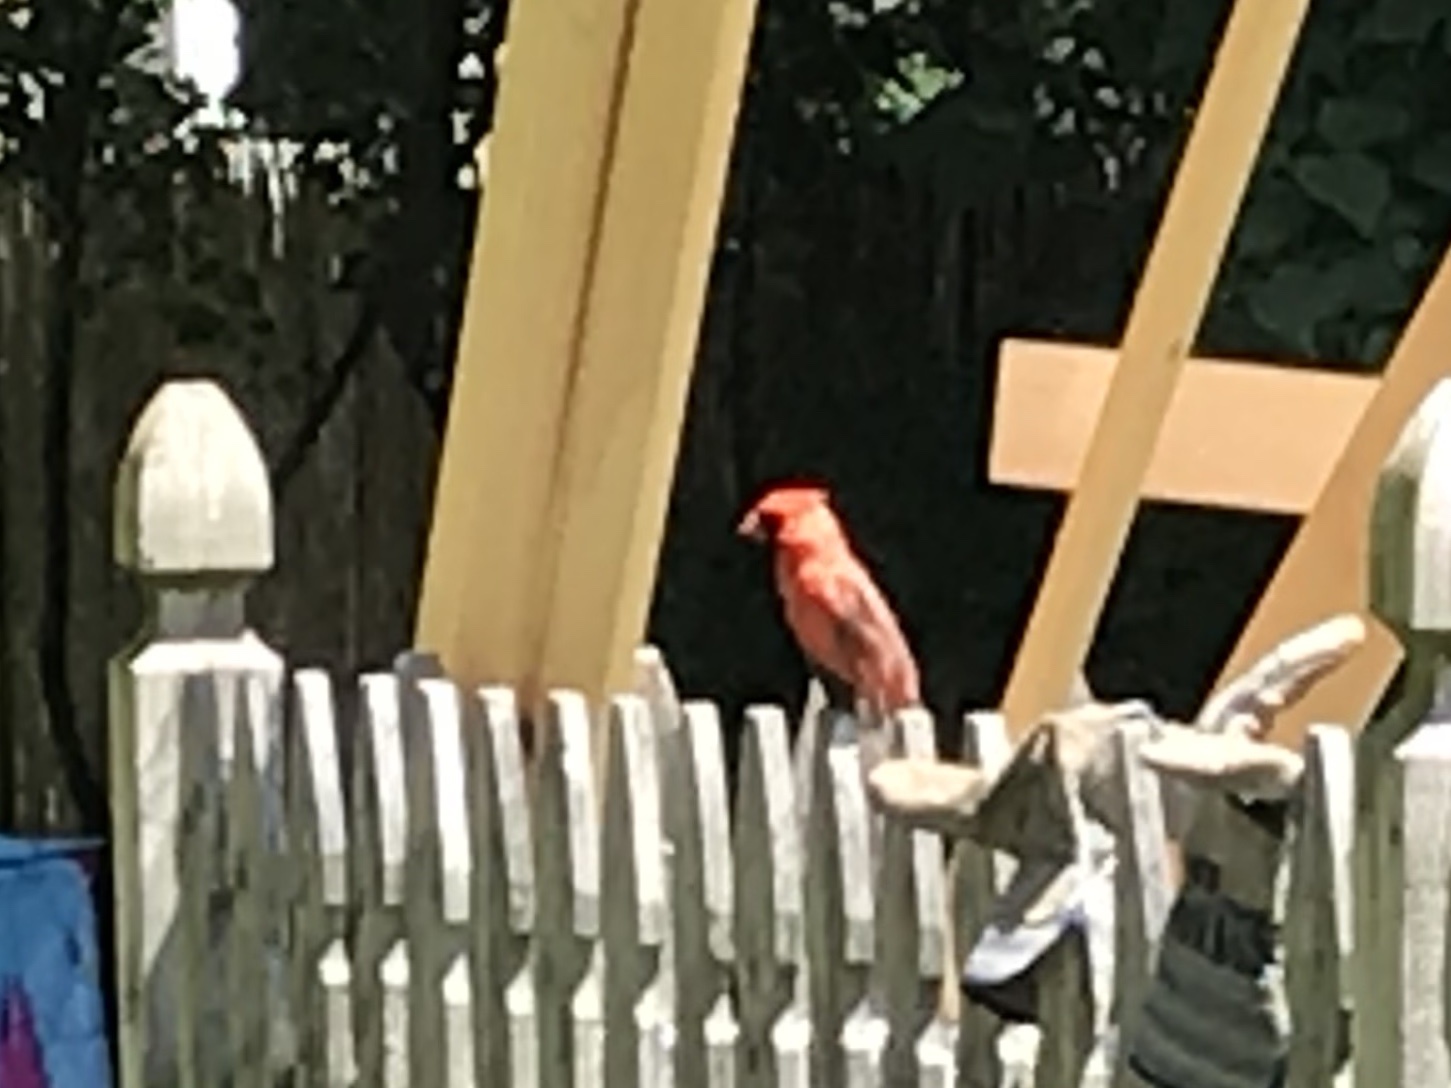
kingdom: Animalia
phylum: Chordata
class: Aves
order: Passeriformes
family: Cardinalidae
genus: Cardinalis
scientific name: Cardinalis cardinalis
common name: Northern cardinal
